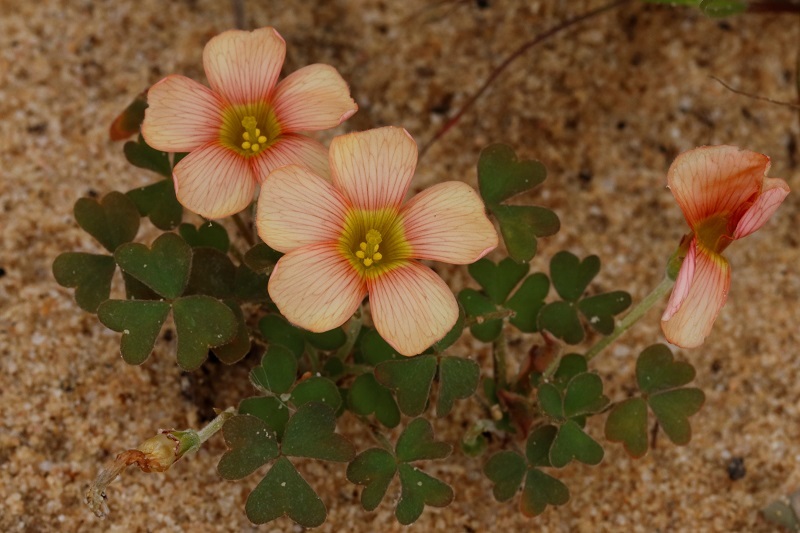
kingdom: Plantae
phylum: Tracheophyta
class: Magnoliopsida
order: Oxalidales
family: Oxalidaceae
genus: Oxalis
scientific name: Oxalis obtusa
